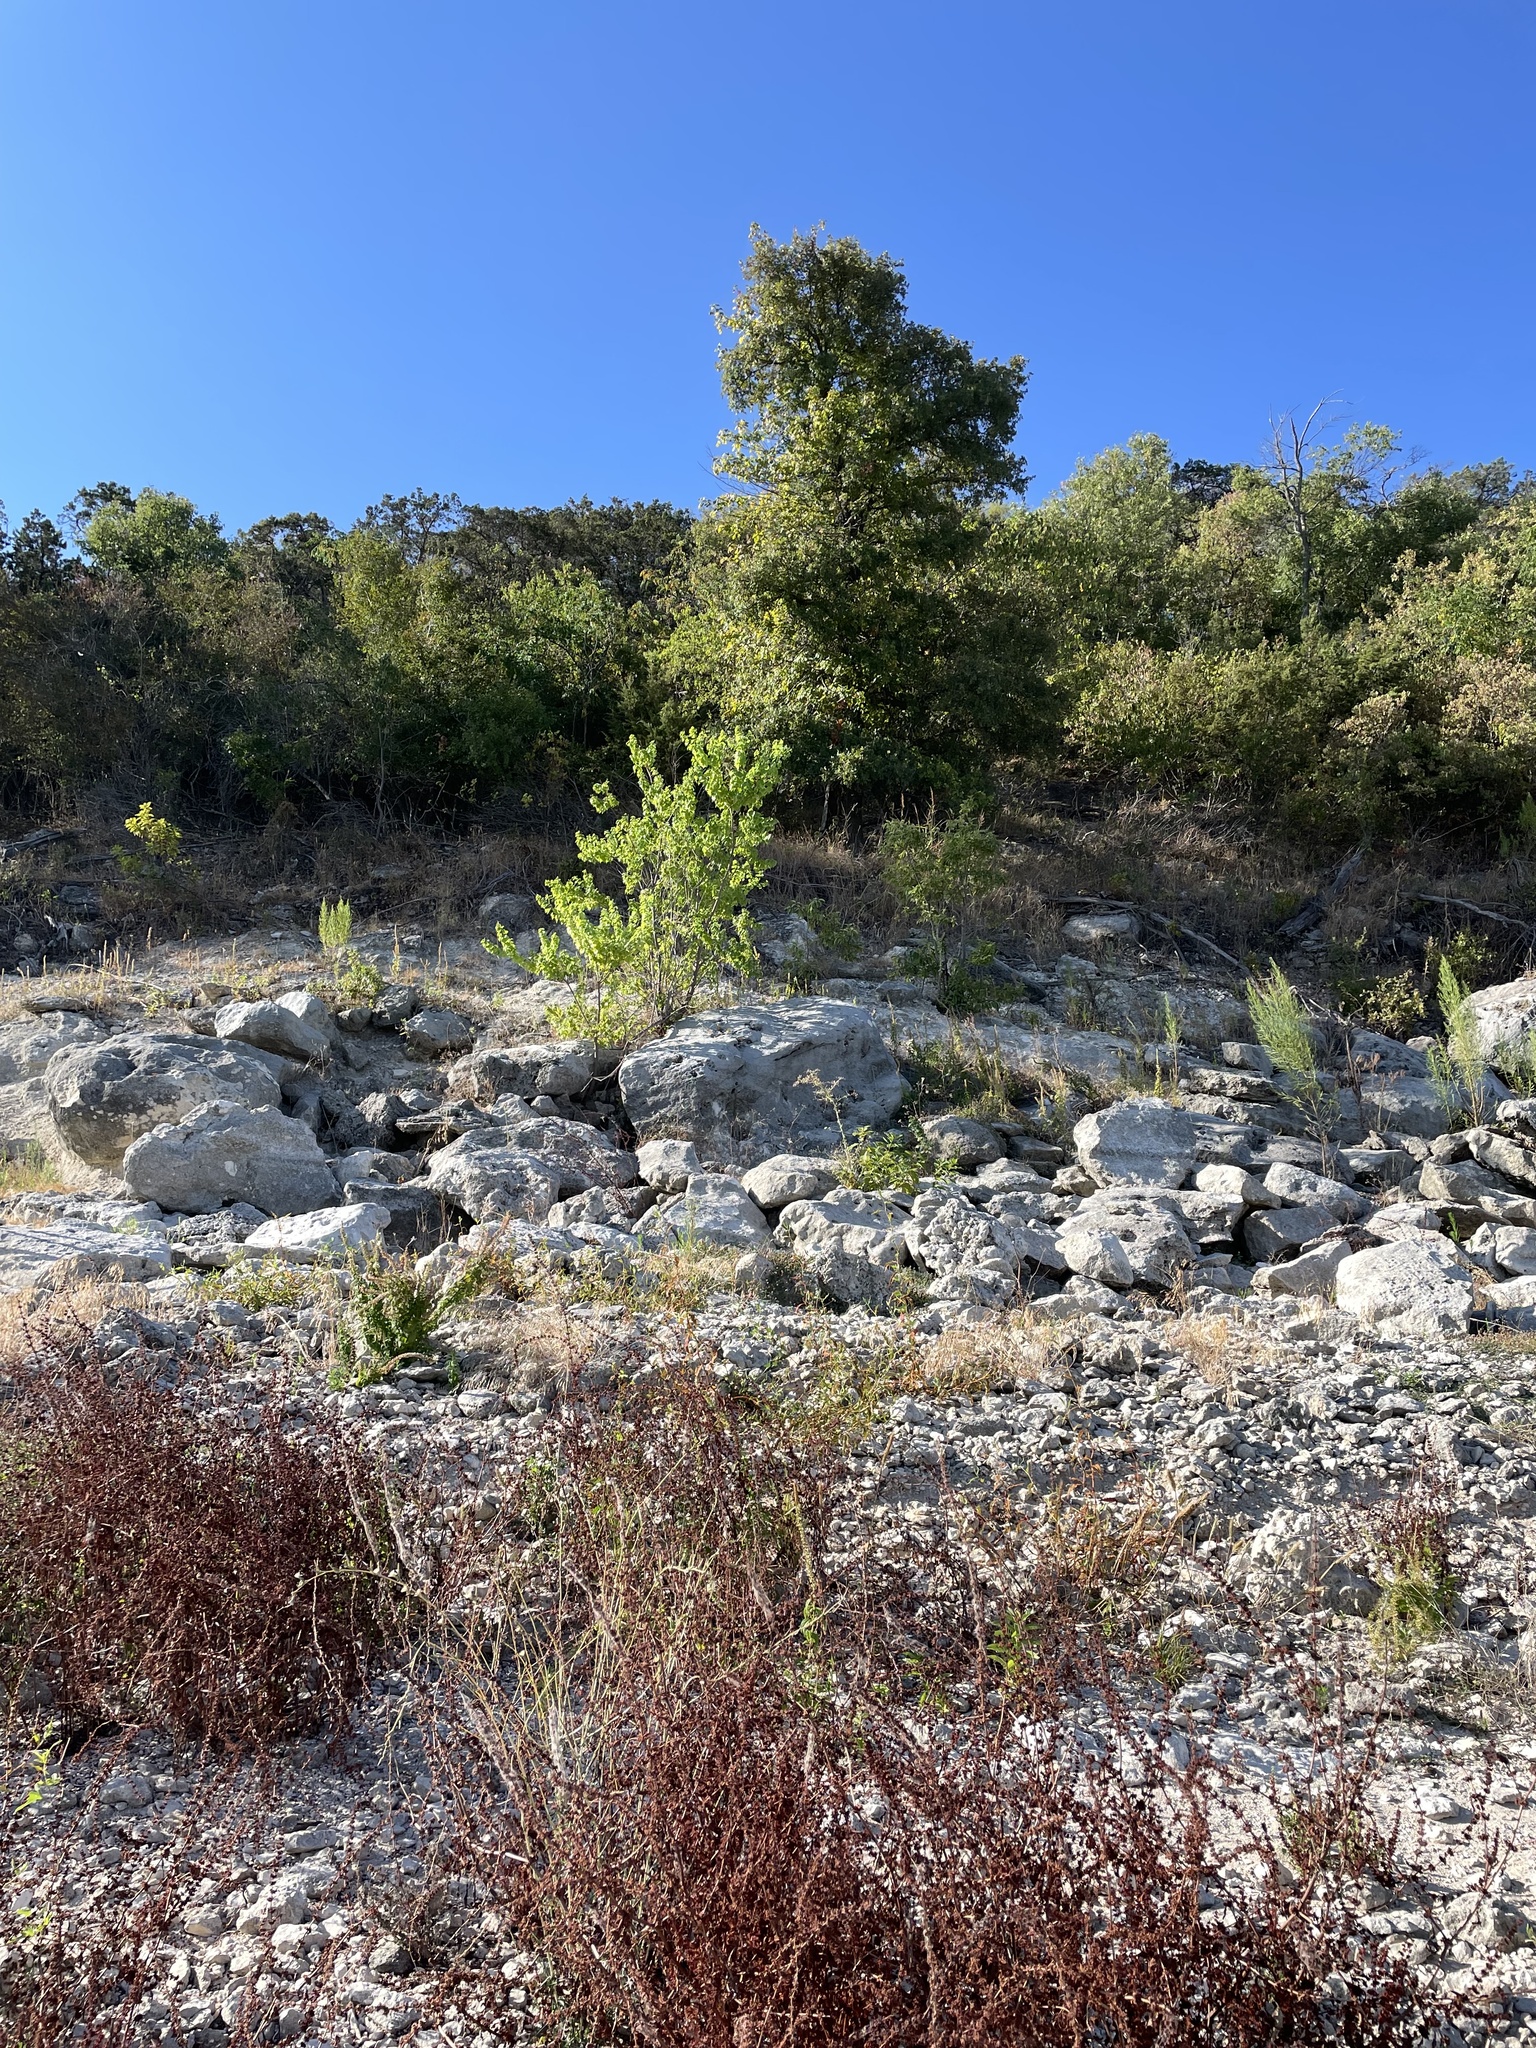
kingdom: Plantae
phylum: Tracheophyta
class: Magnoliopsida
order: Malpighiales
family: Euphorbiaceae
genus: Triadica
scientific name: Triadica sebifera
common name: Chinese tallow
